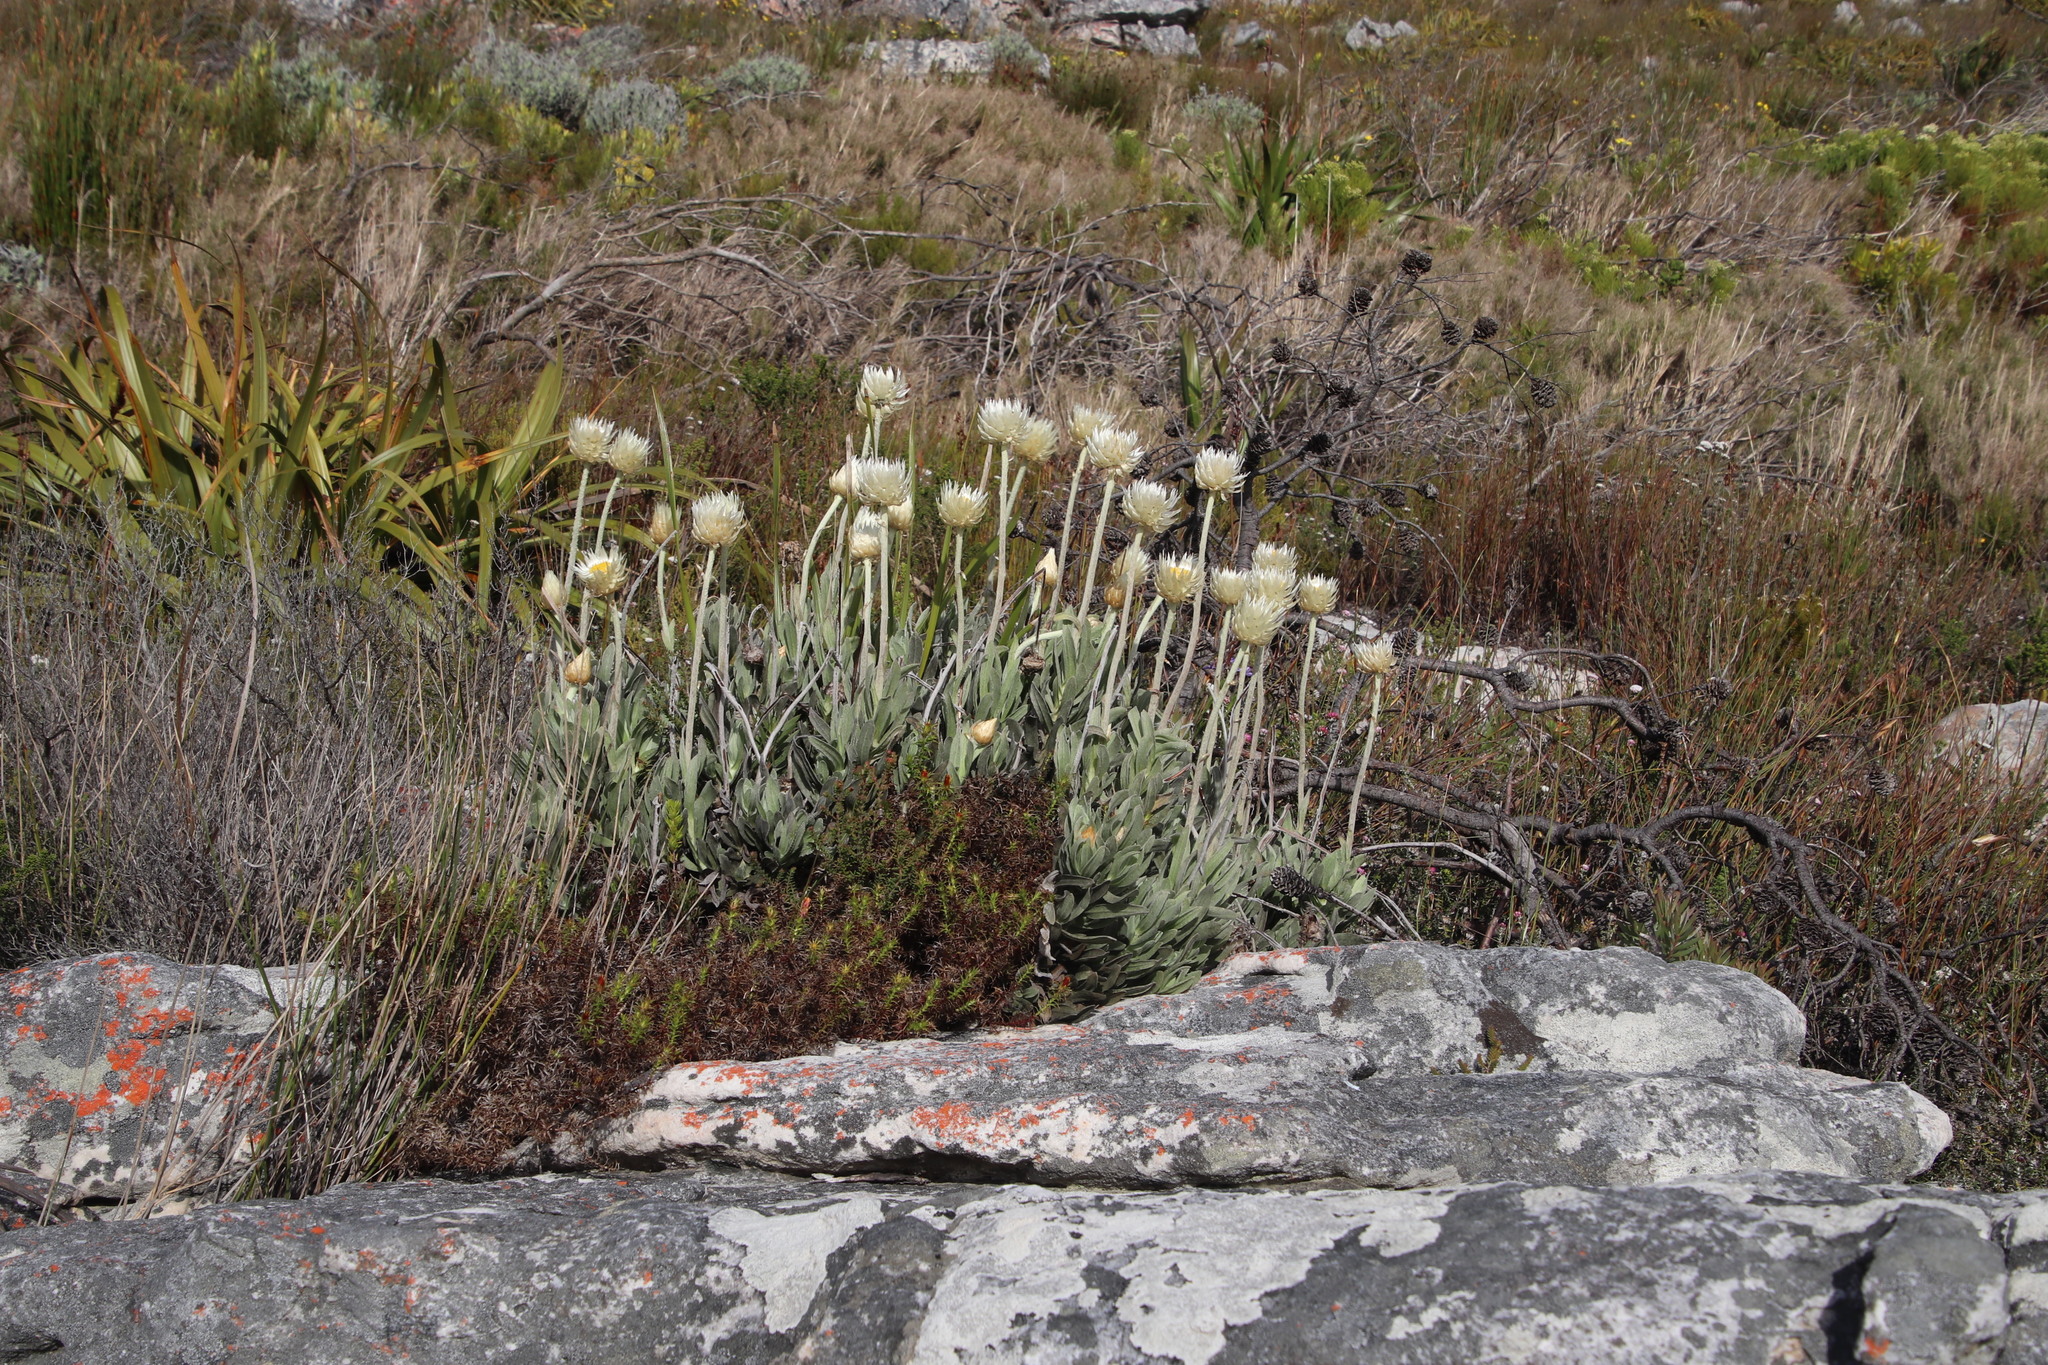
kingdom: Plantae
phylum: Tracheophyta
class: Magnoliopsida
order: Asterales
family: Asteraceae
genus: Syncarpha
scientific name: Syncarpha speciosissima
